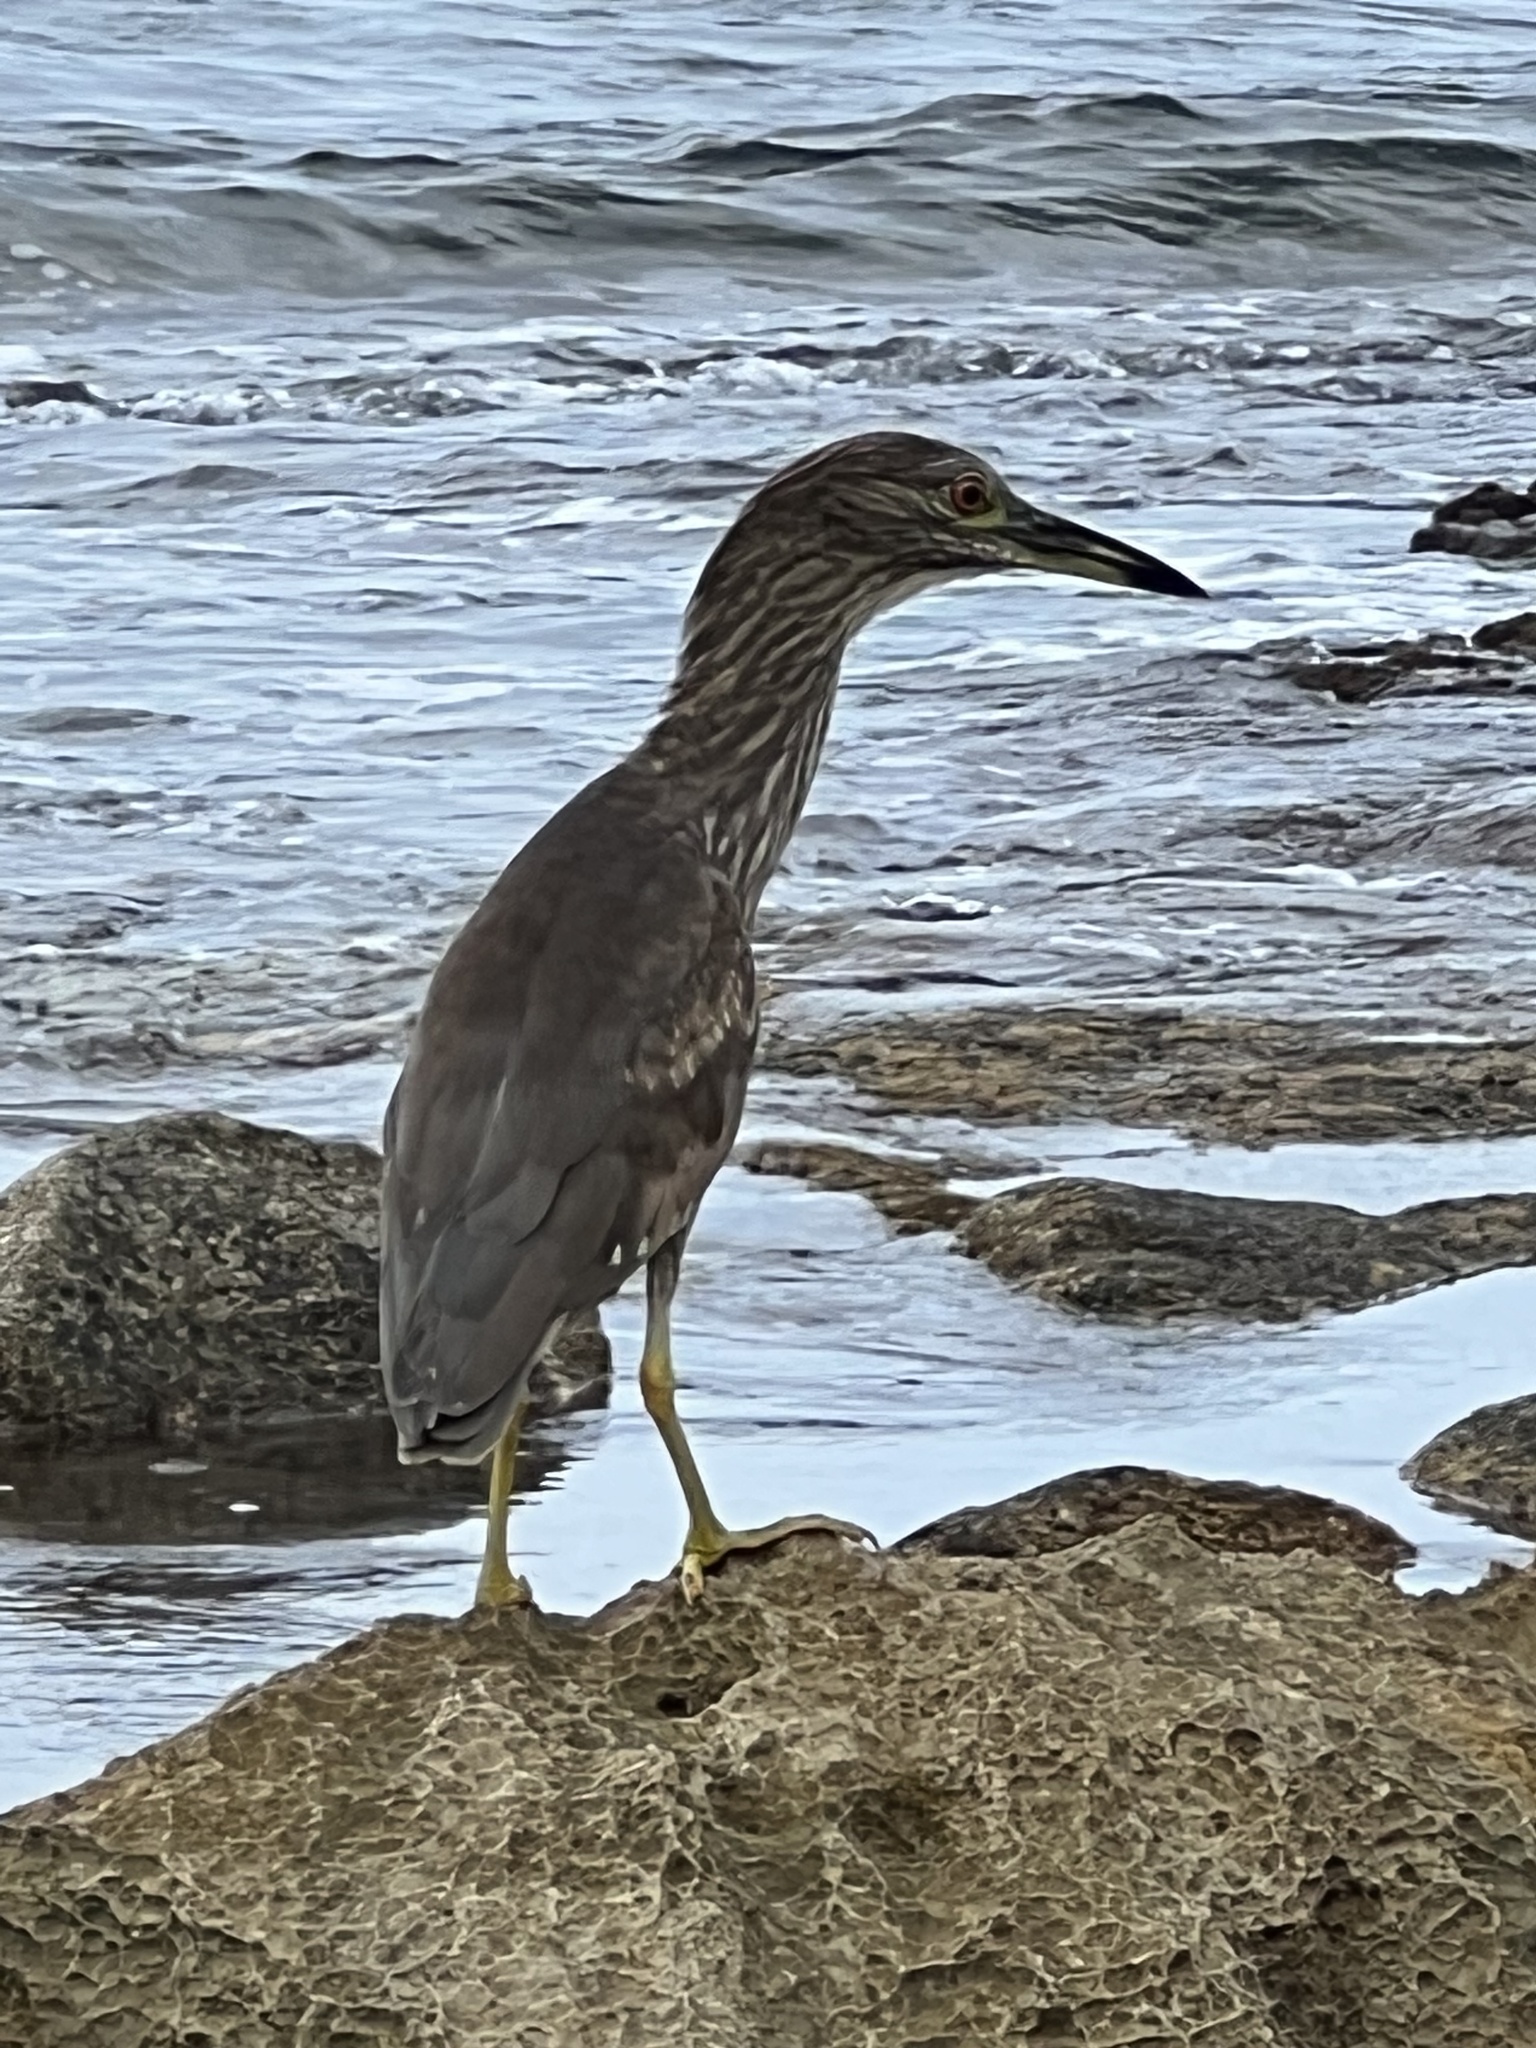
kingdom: Animalia
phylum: Chordata
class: Aves
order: Pelecaniformes
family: Ardeidae
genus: Nycticorax
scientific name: Nycticorax nycticorax
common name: Black-crowned night heron
